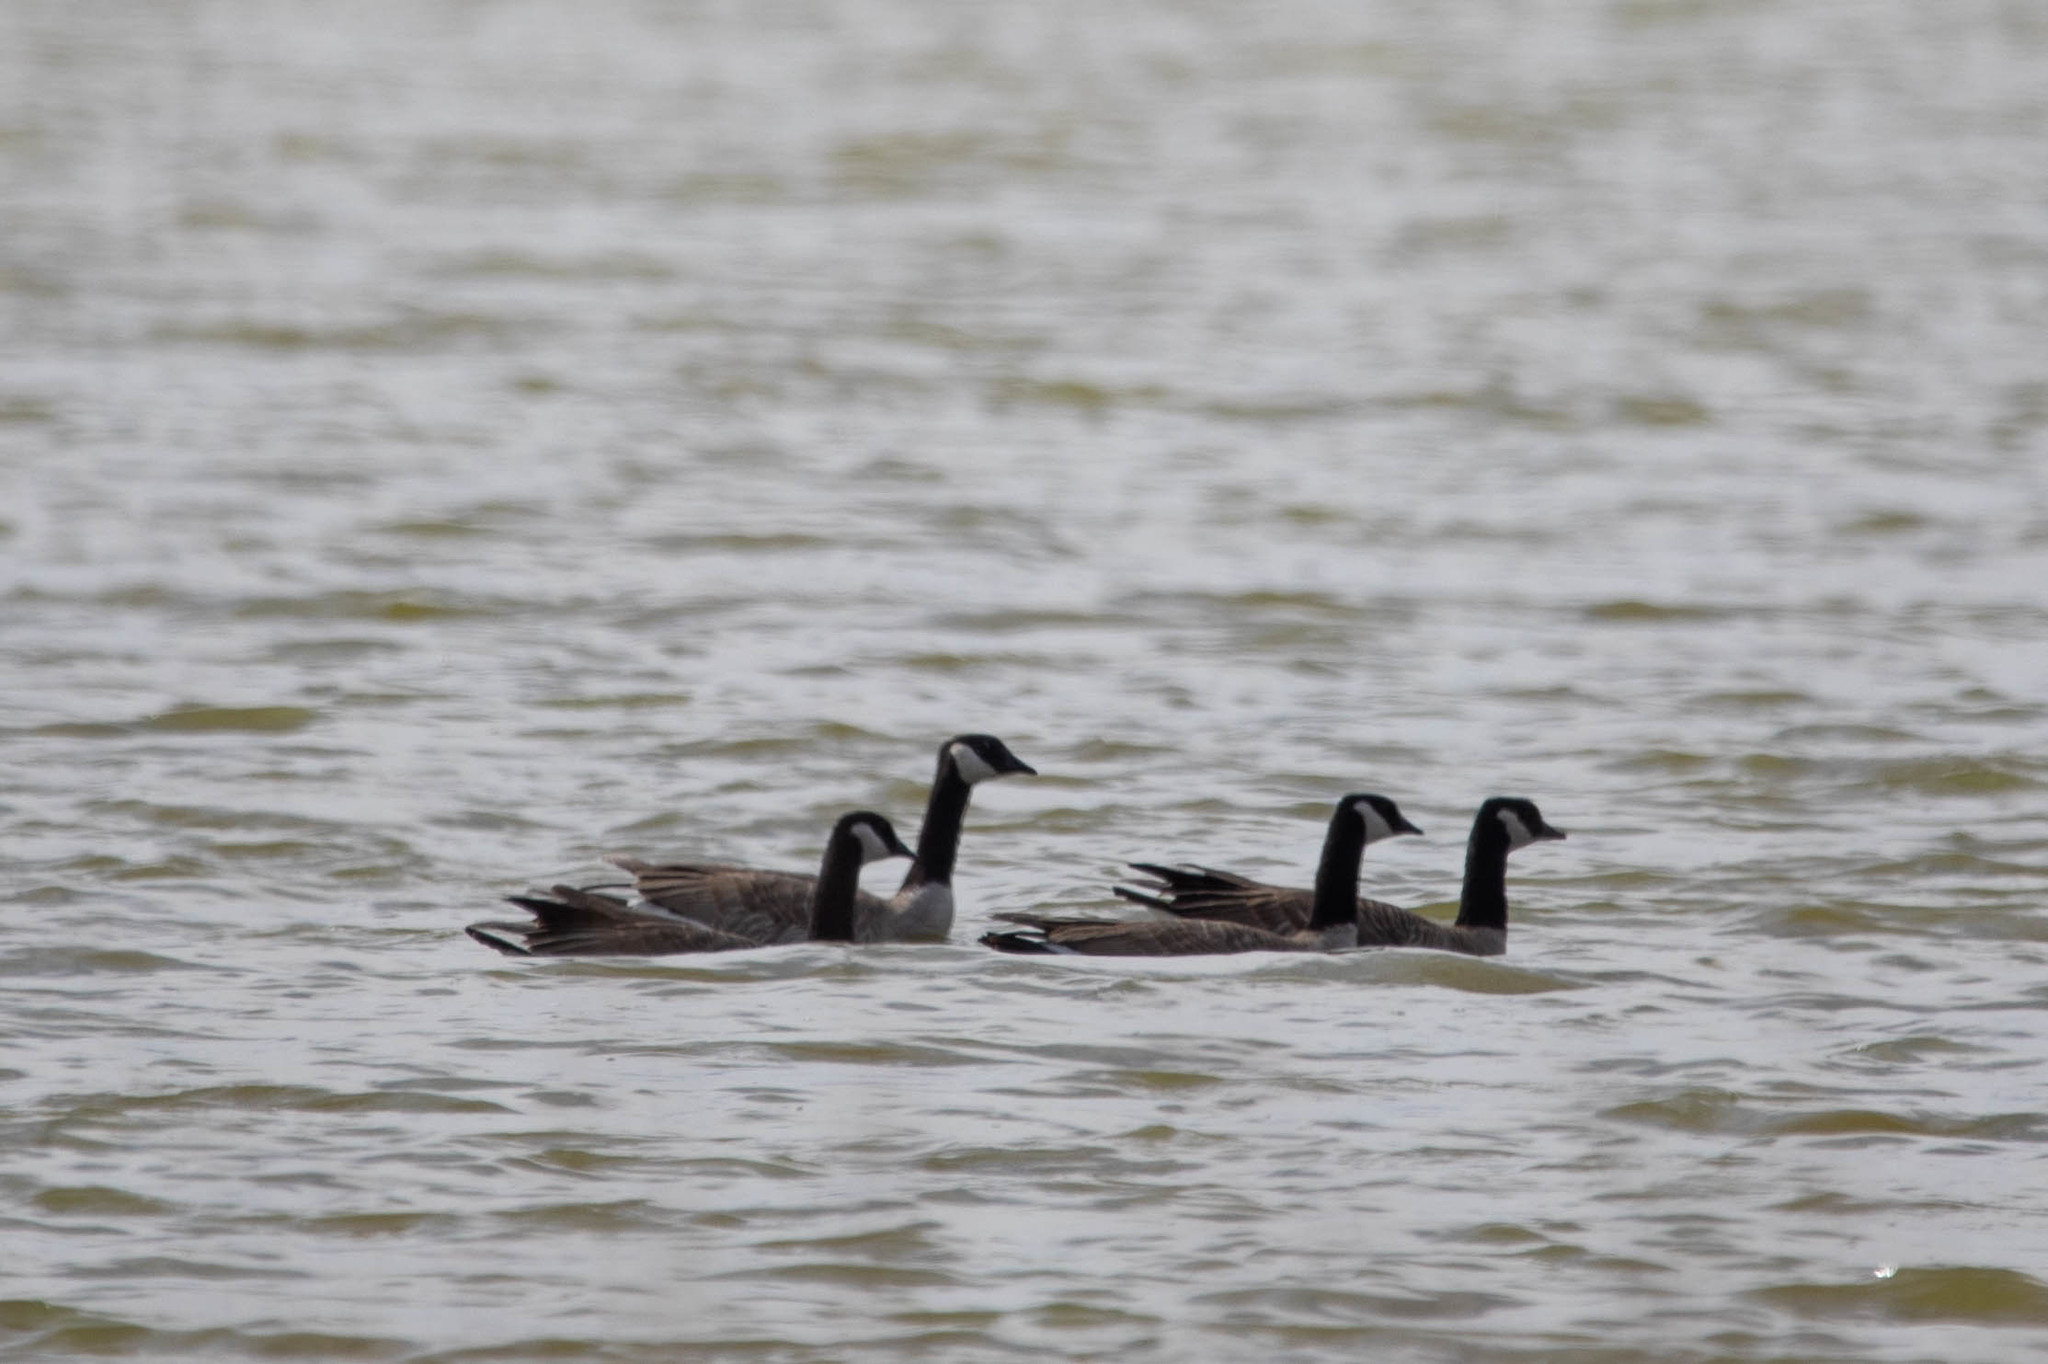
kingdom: Animalia
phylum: Chordata
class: Aves
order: Anseriformes
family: Anatidae
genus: Branta
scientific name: Branta hutchinsii
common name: Cackling goose
